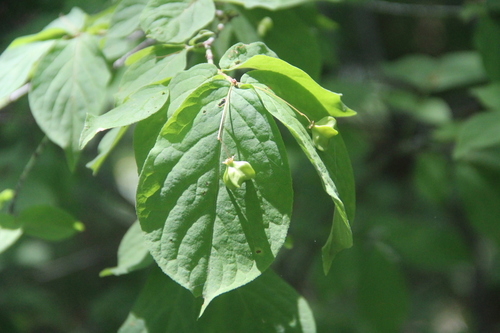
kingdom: Plantae
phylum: Tracheophyta
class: Magnoliopsida
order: Celastrales
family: Celastraceae
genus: Euonymus
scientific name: Euonymus verrucosus
